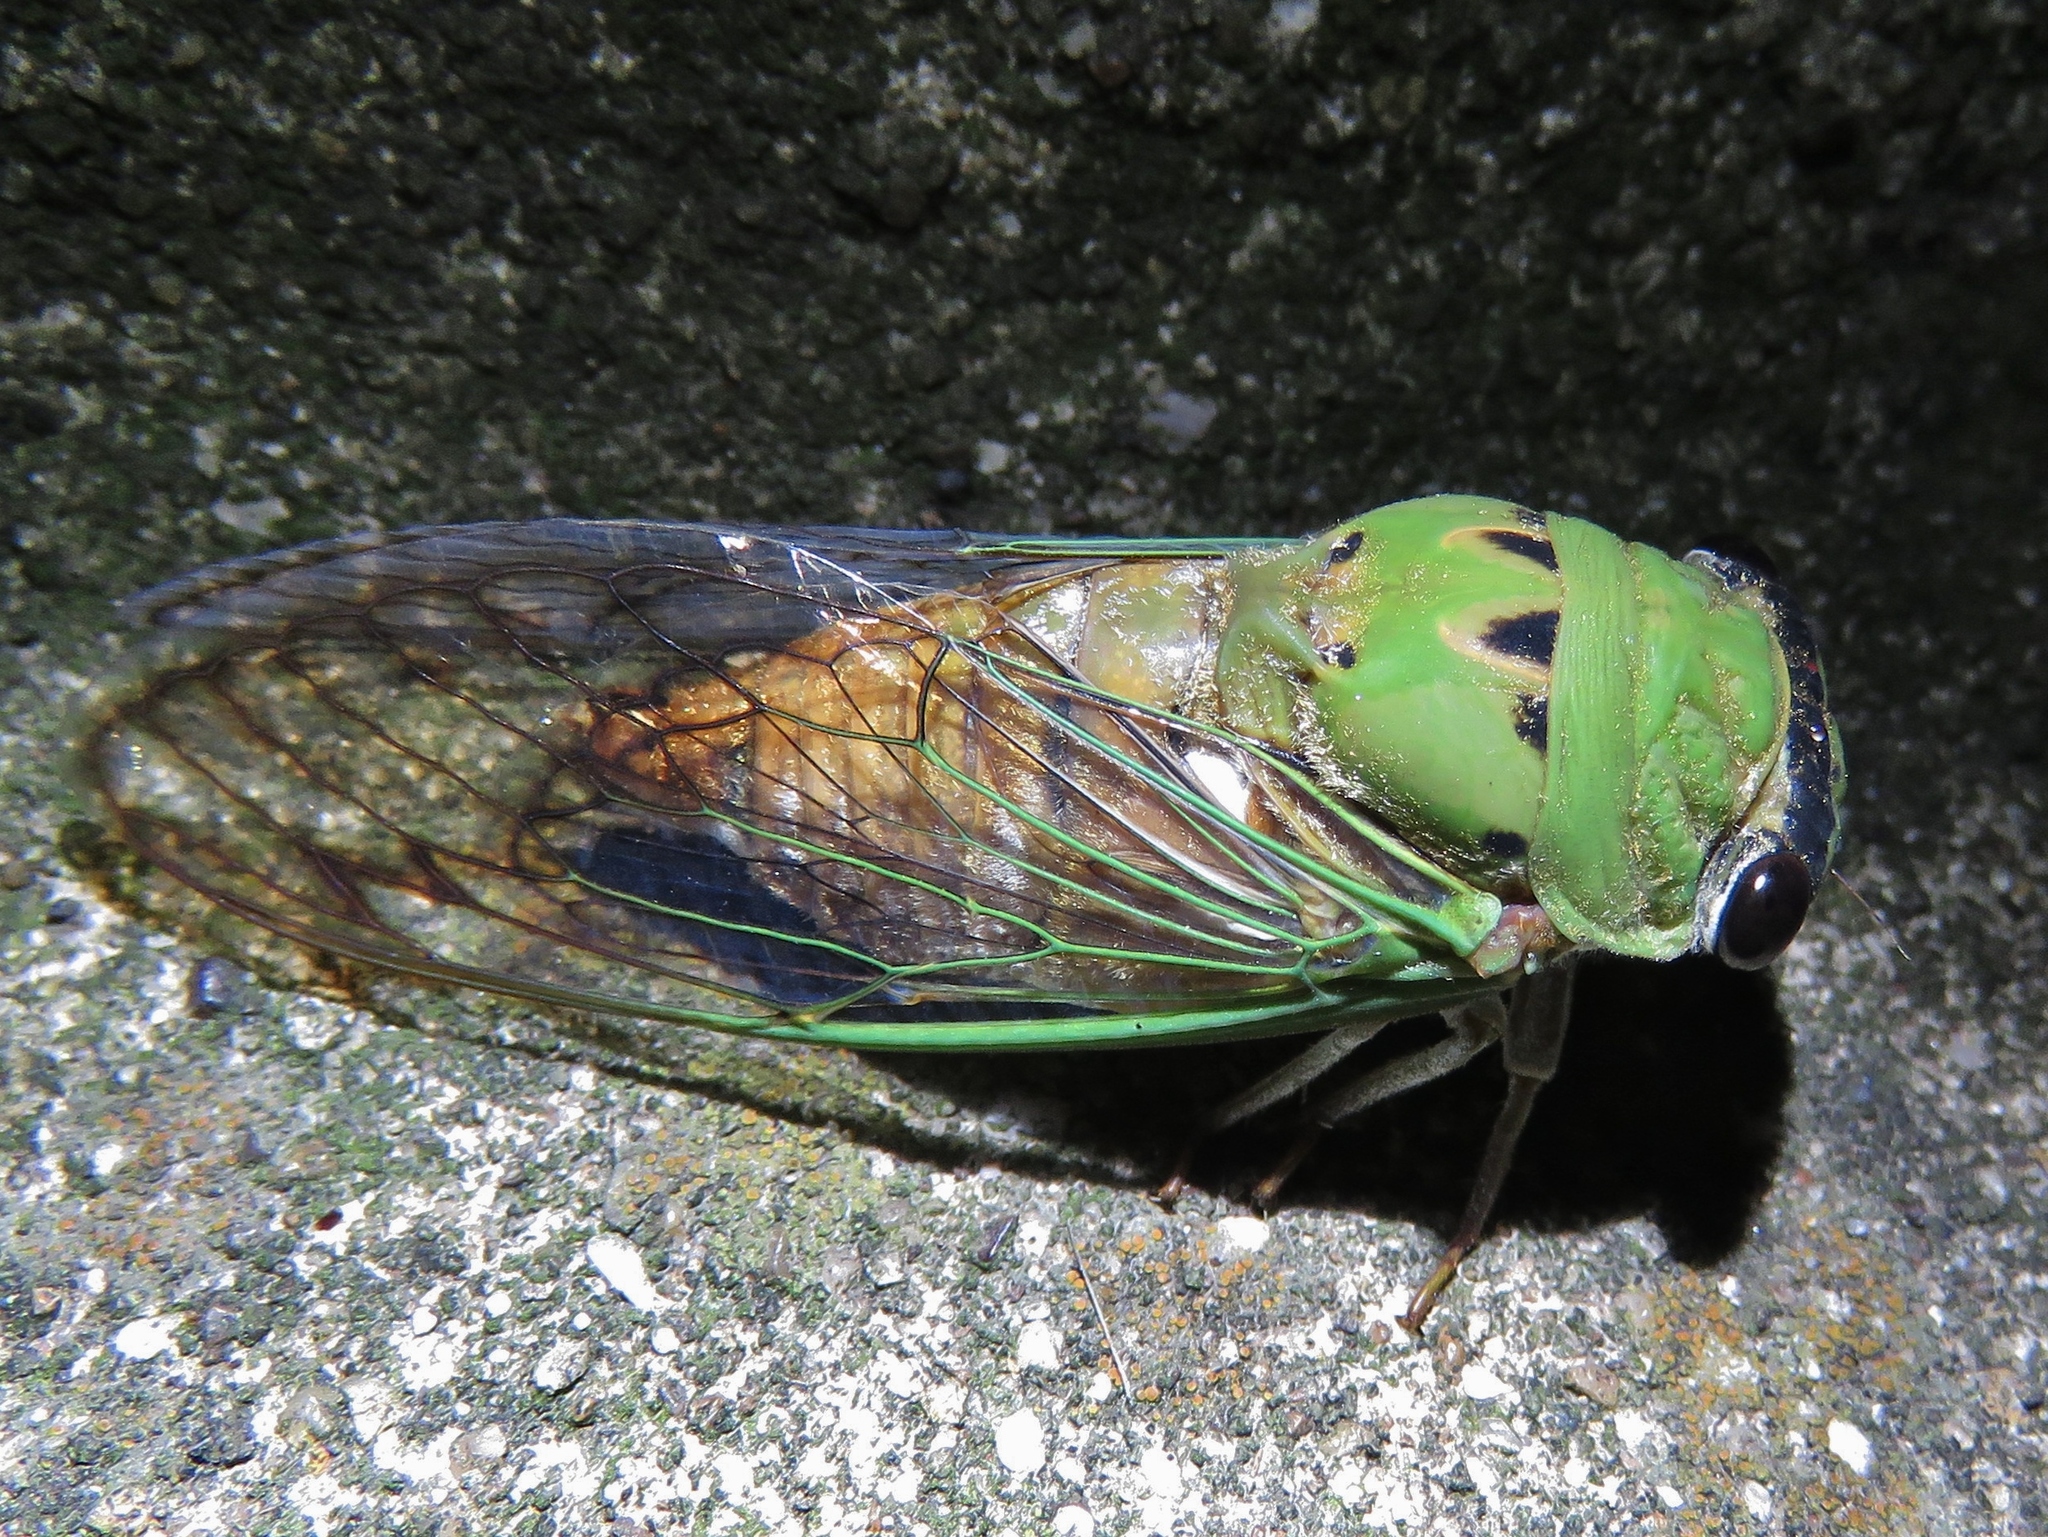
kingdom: Animalia
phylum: Arthropoda
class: Insecta
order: Hemiptera
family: Cicadidae
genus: Neotibicen
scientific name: Neotibicen superbus
